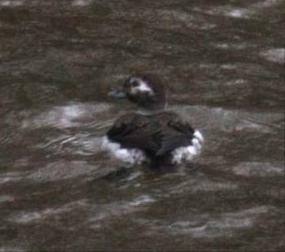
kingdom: Animalia
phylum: Chordata
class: Aves
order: Anseriformes
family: Anatidae
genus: Clangula
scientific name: Clangula hyemalis
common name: Long-tailed duck
